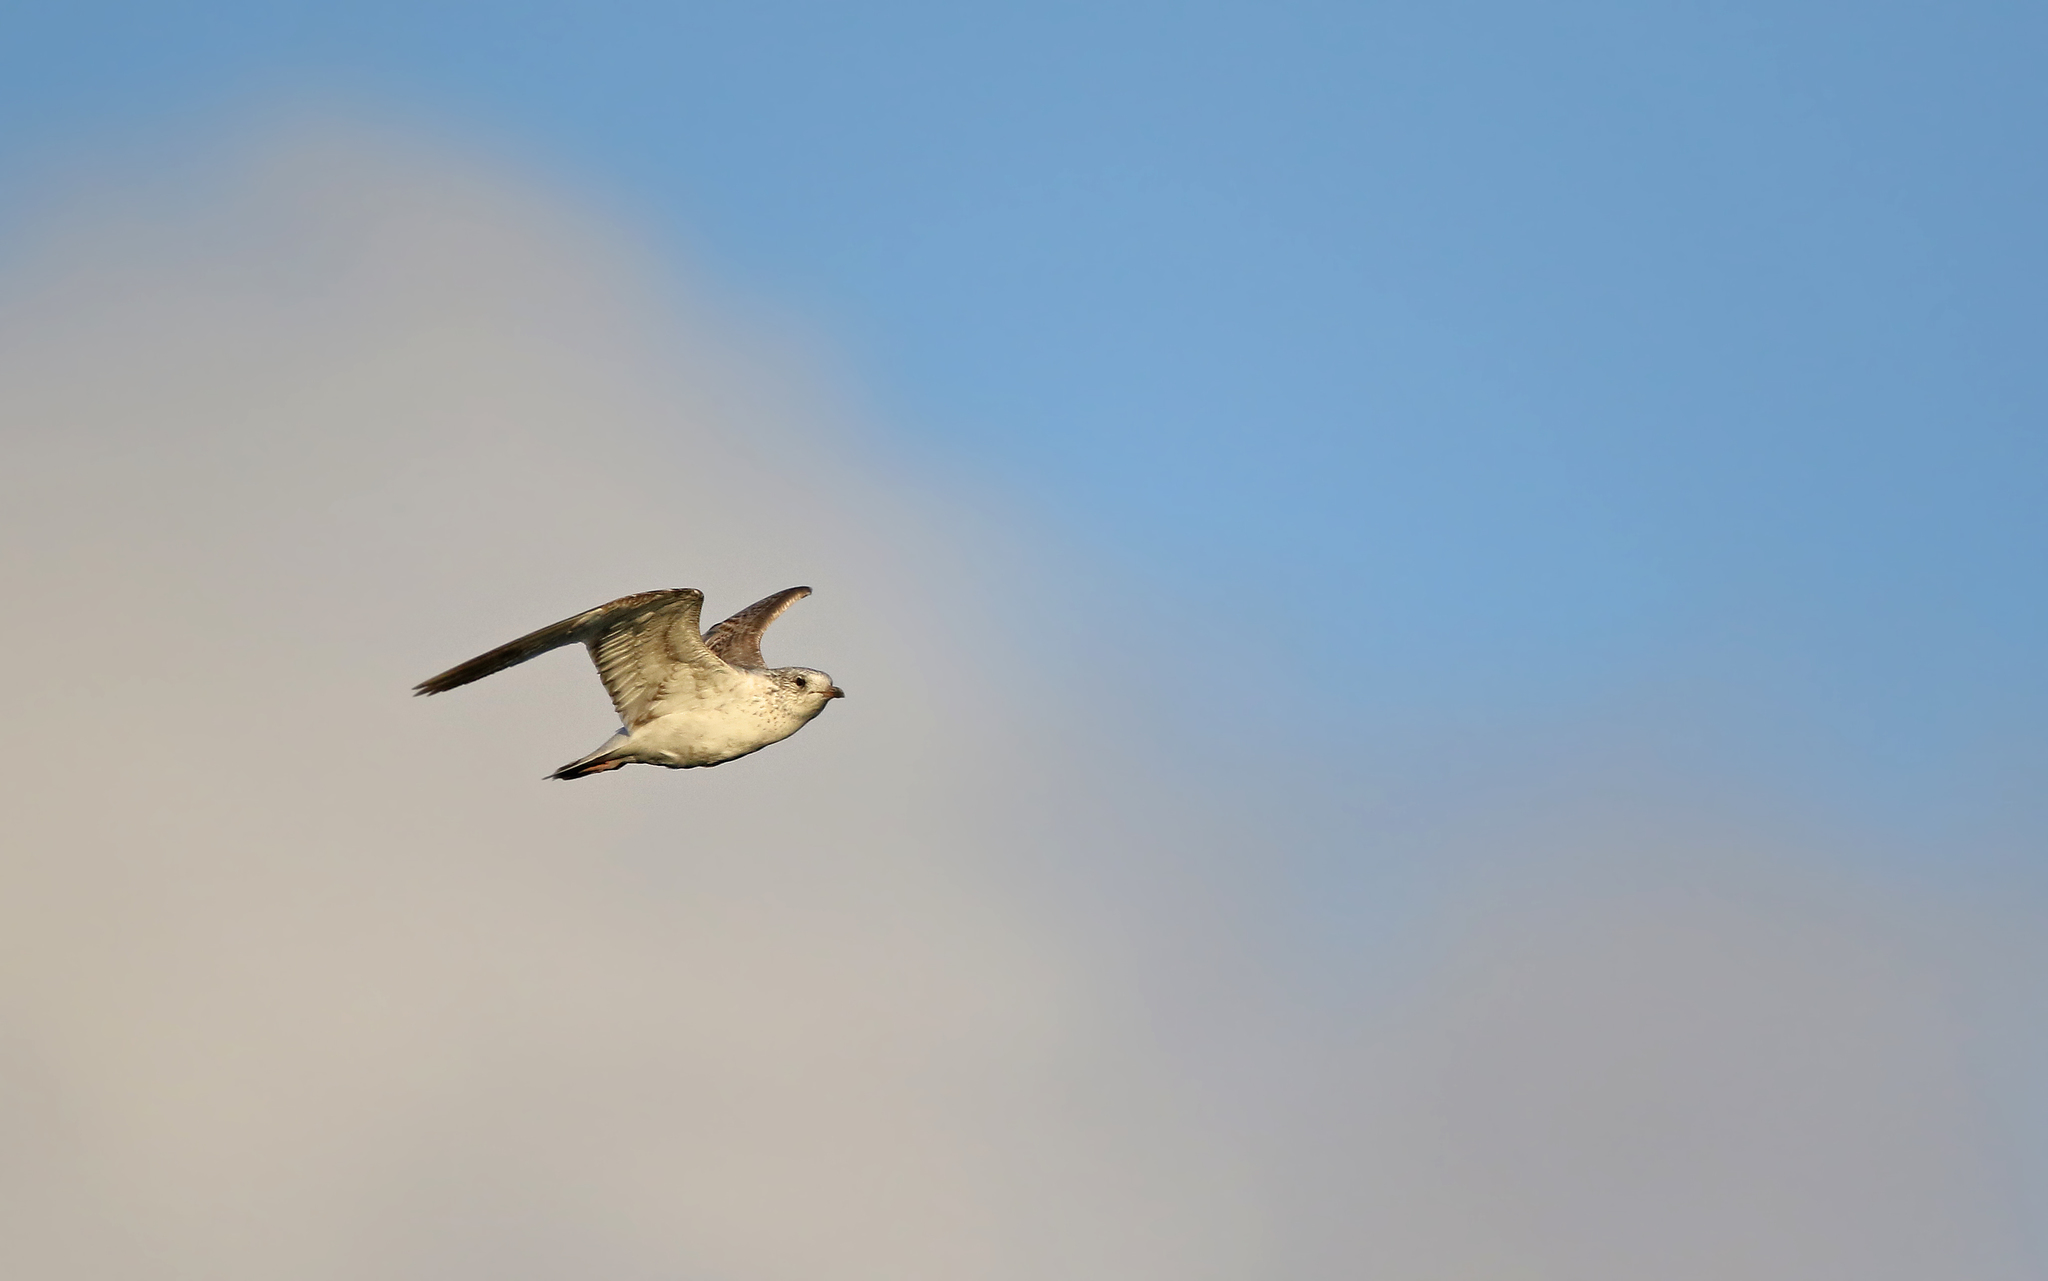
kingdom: Animalia
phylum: Chordata
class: Aves
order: Charadriiformes
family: Laridae
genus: Larus
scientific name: Larus canus
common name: Mew gull
